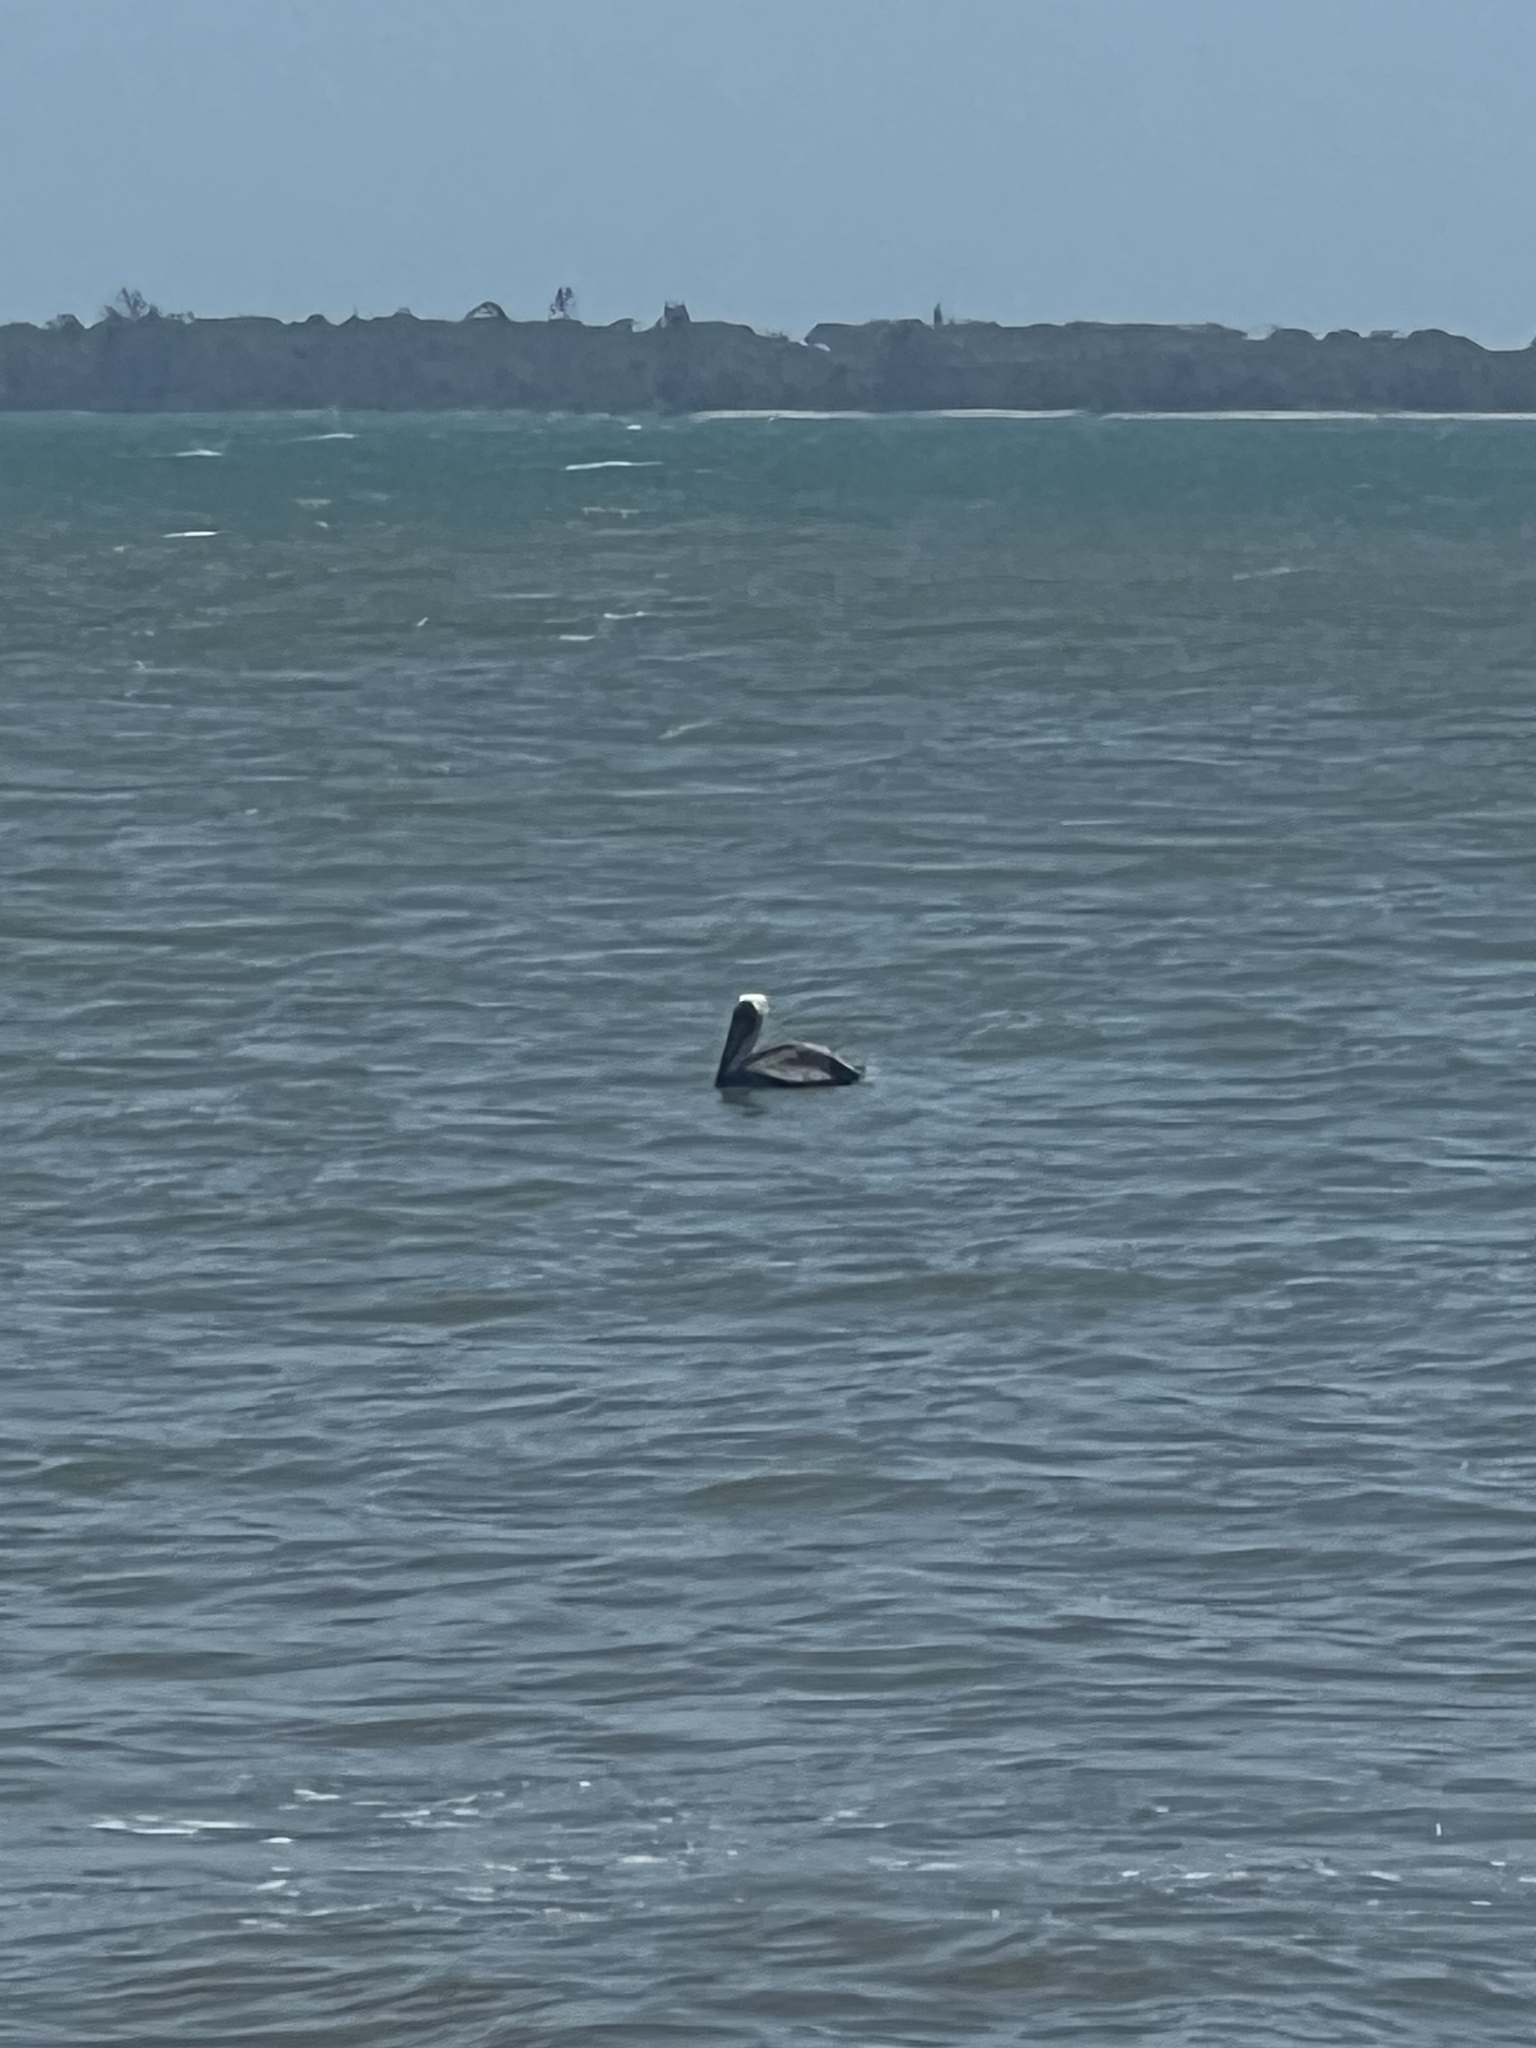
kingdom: Animalia
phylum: Chordata
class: Aves
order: Pelecaniformes
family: Pelecanidae
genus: Pelecanus
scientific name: Pelecanus occidentalis
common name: Brown pelican
